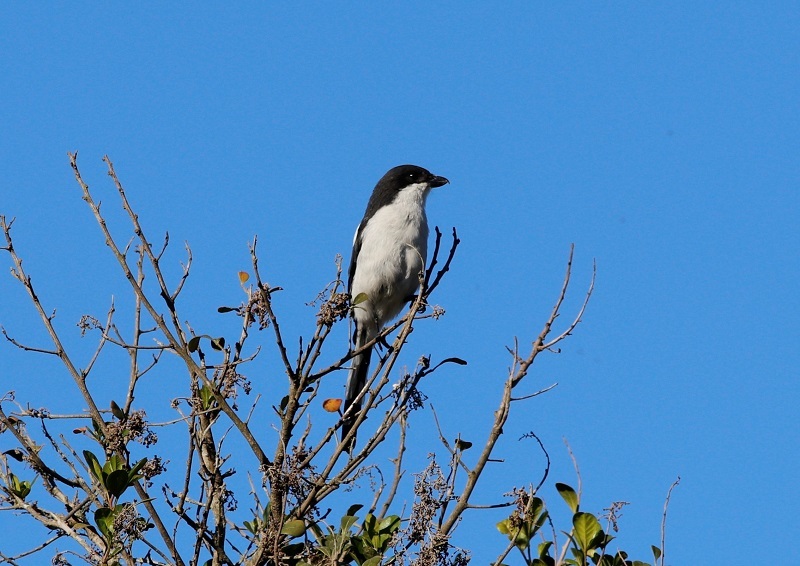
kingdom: Animalia
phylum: Chordata
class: Aves
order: Passeriformes
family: Laniidae
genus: Lanius
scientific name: Lanius collaris
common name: Southern fiscal
